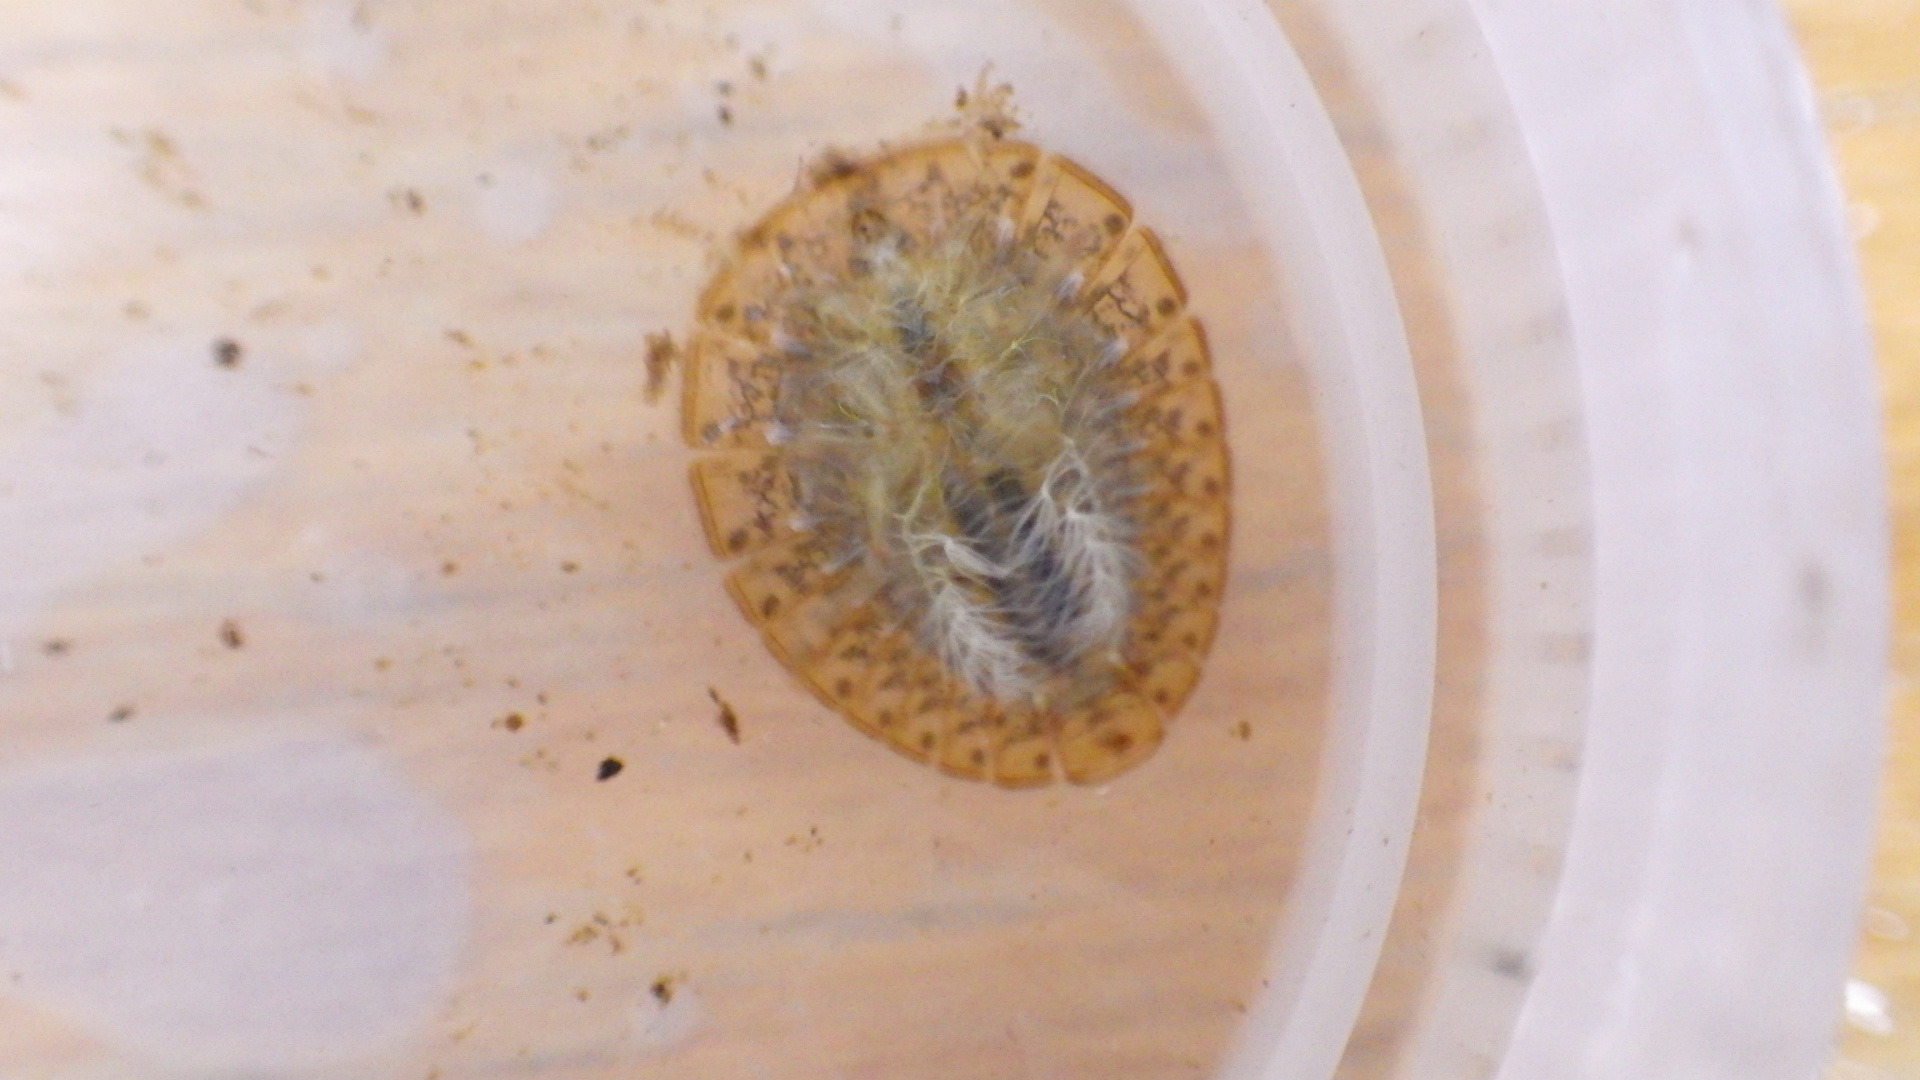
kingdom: Animalia
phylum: Arthropoda
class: Insecta
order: Coleoptera
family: Psephenidae
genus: Psephenus
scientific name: Psephenus herricki
